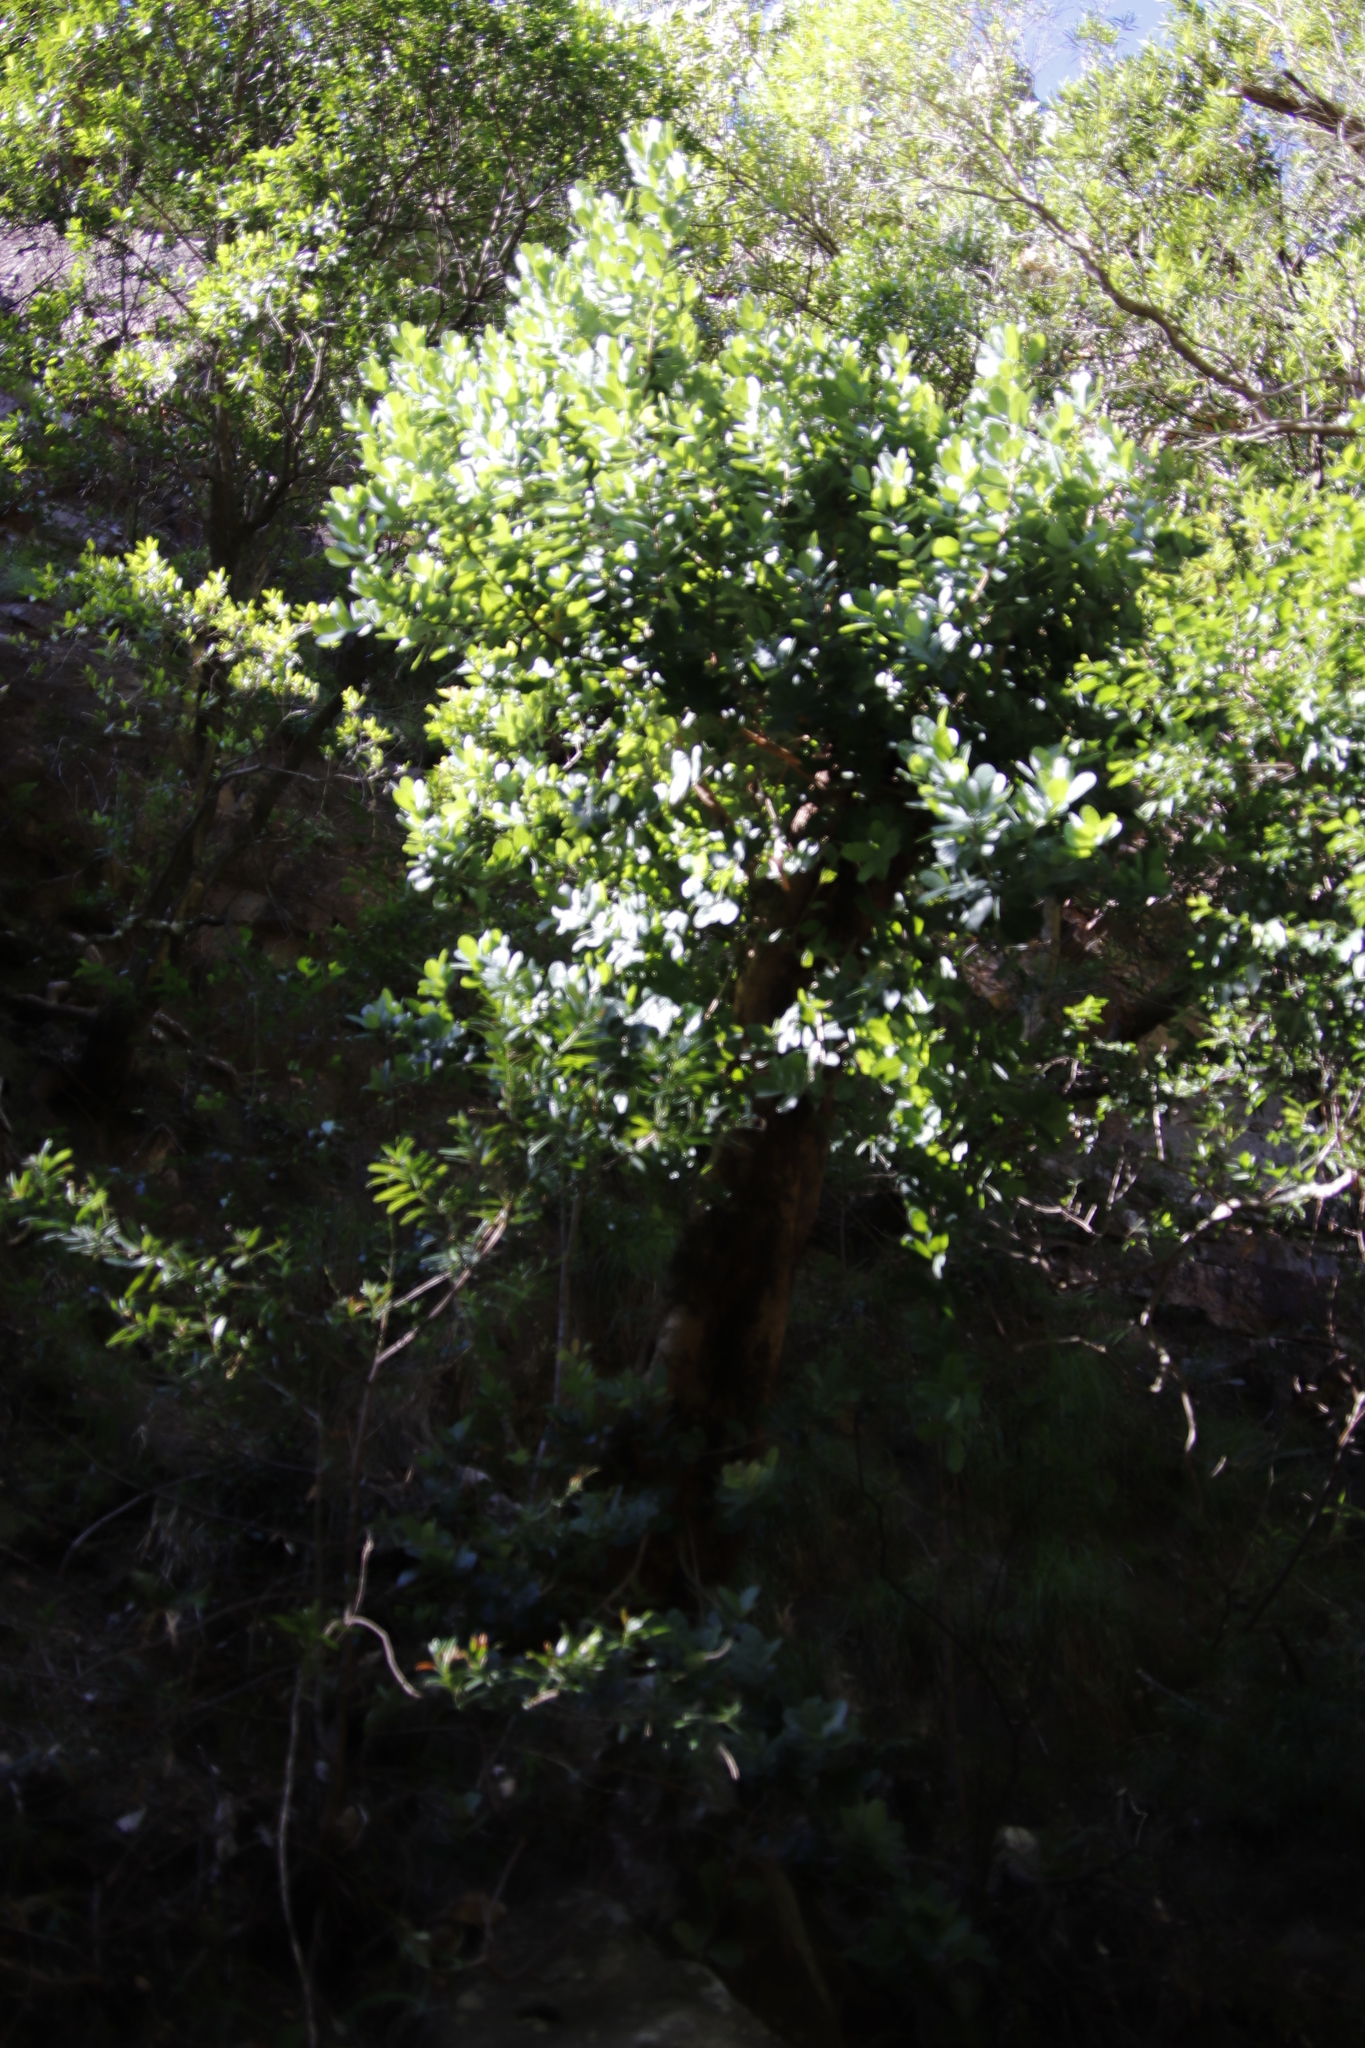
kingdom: Plantae
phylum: Tracheophyta
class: Magnoliopsida
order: Sapindales
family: Anacardiaceae
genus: Heeria
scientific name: Heeria argentea
